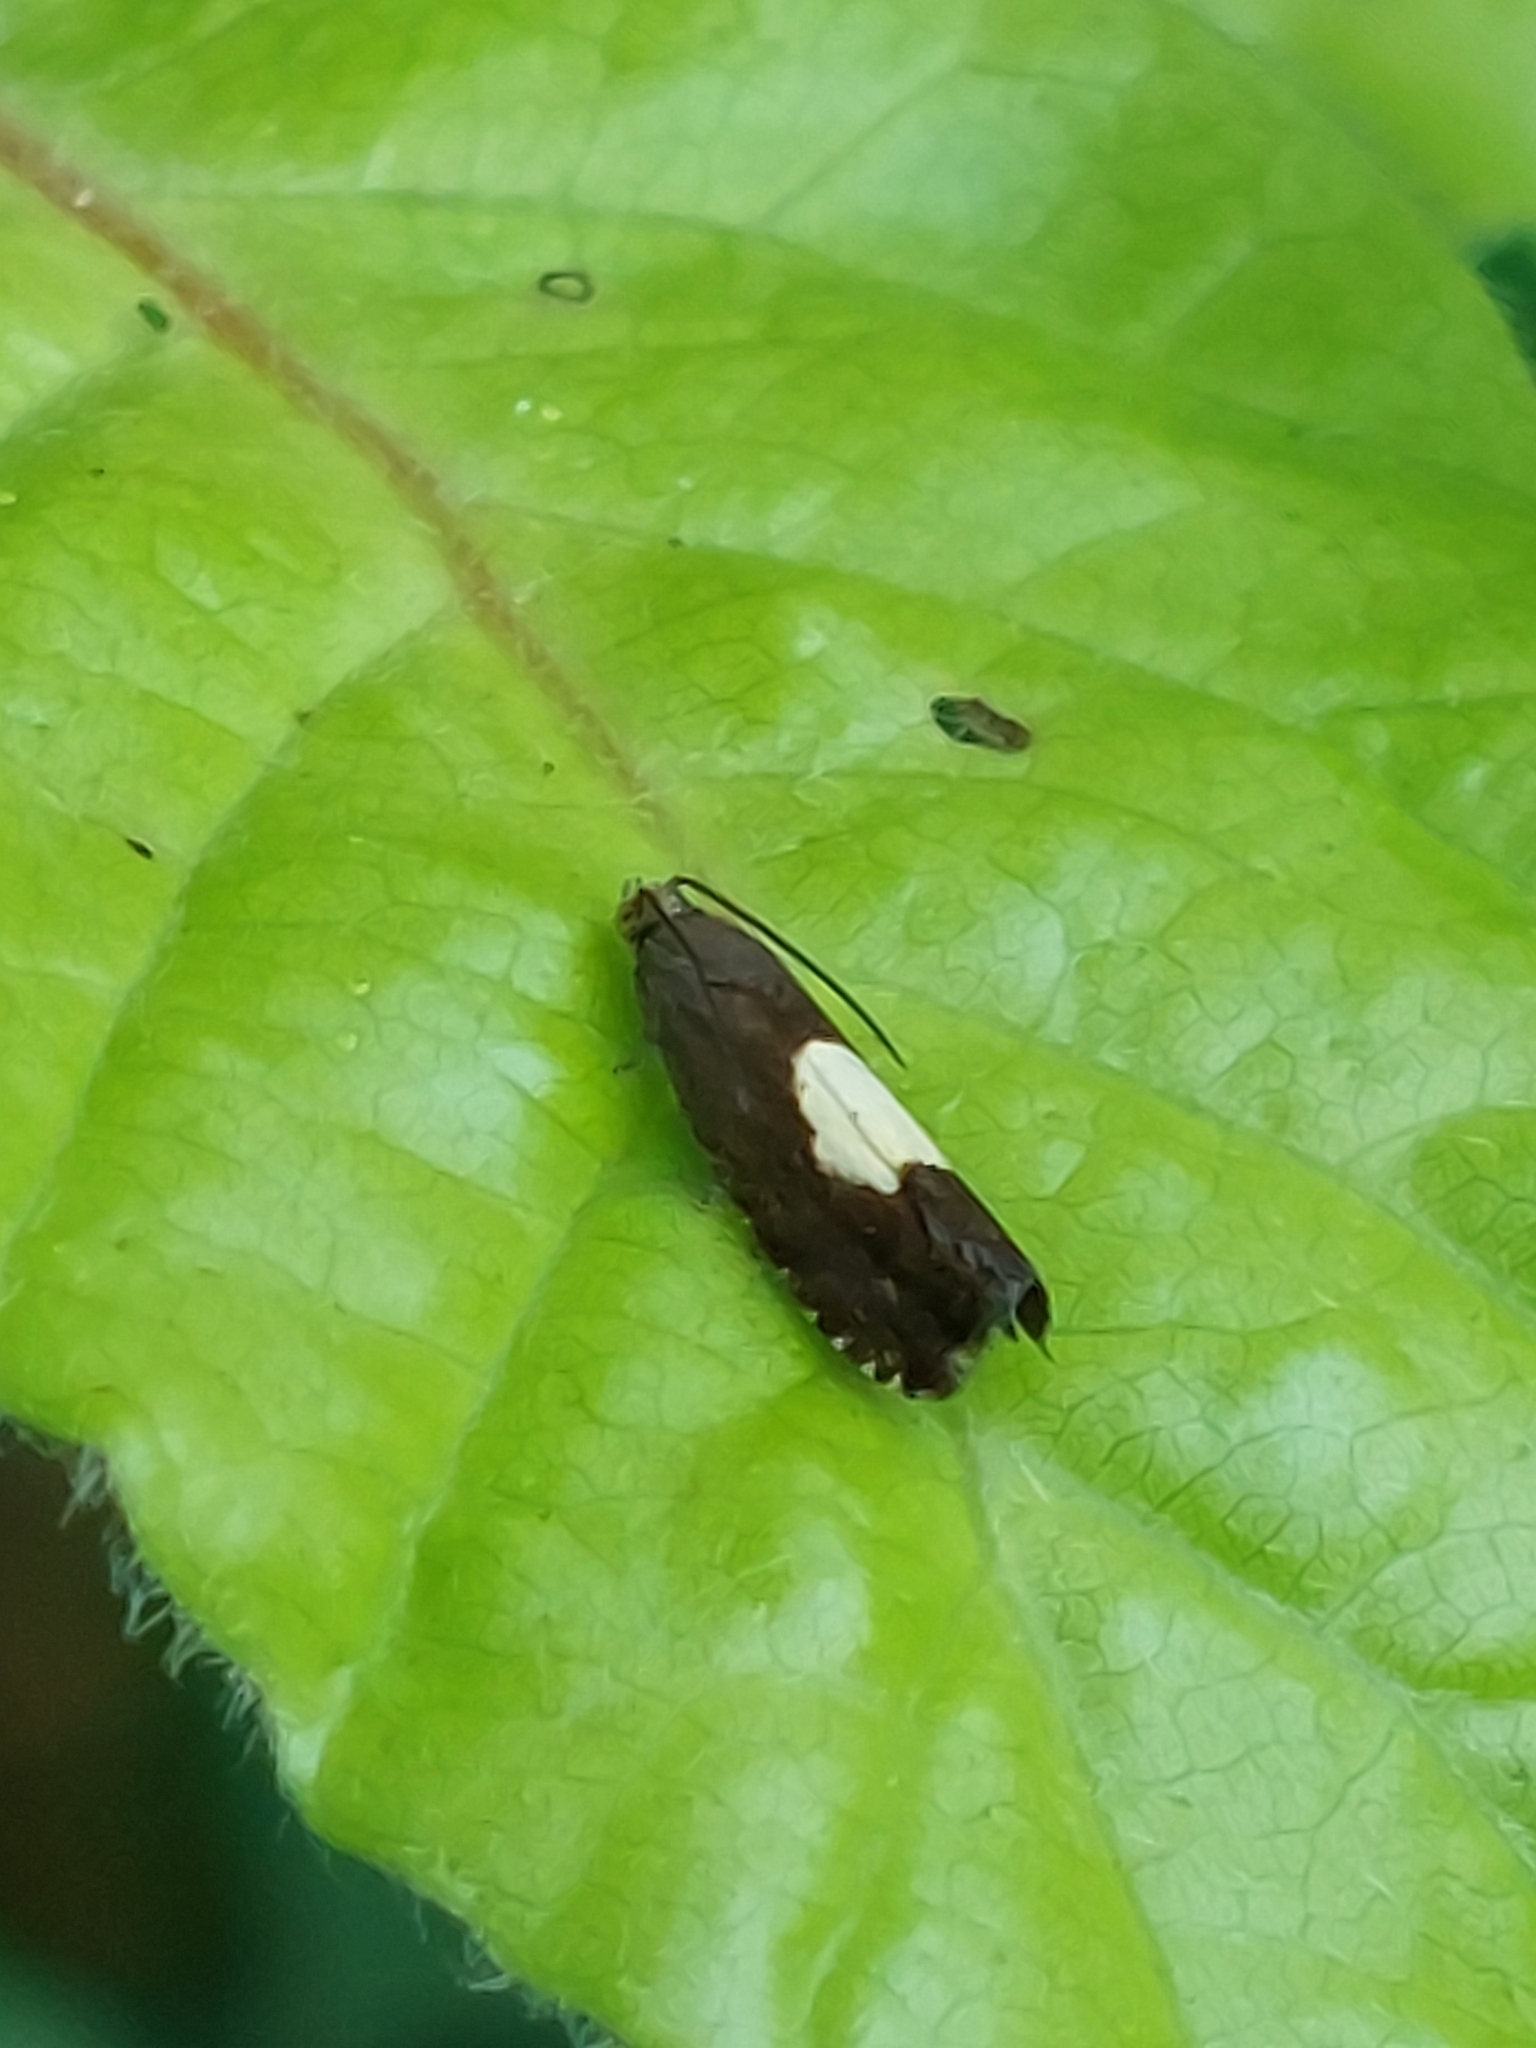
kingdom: Animalia
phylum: Arthropoda
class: Insecta
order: Lepidoptera
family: Tortricidae
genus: Pammene
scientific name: Pammene regiana
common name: Regal piercer
